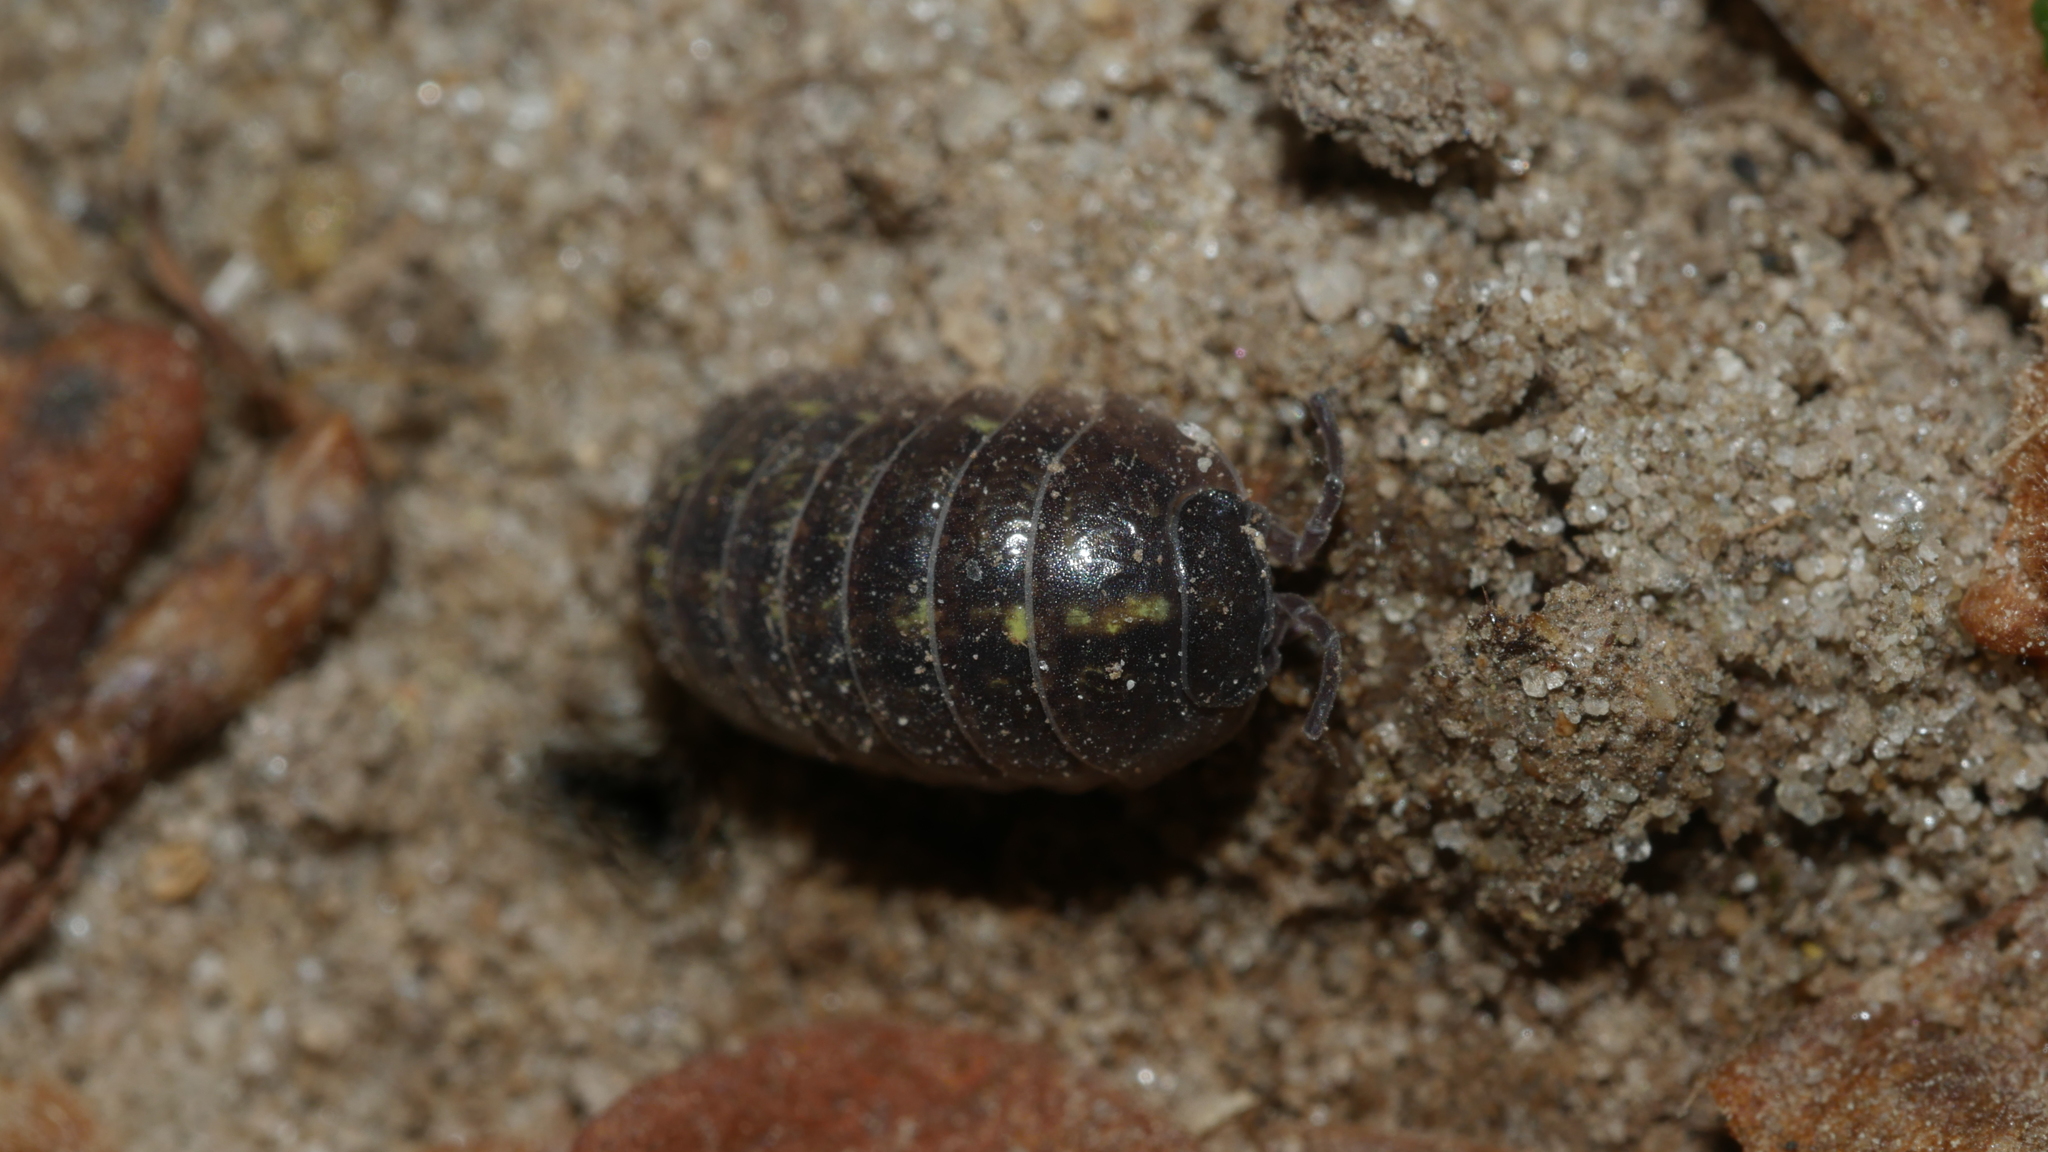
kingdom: Animalia
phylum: Arthropoda
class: Malacostraca
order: Isopoda
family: Armadillidiidae
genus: Armadillidium
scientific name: Armadillidium vulgare
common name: Common pill woodlouse
